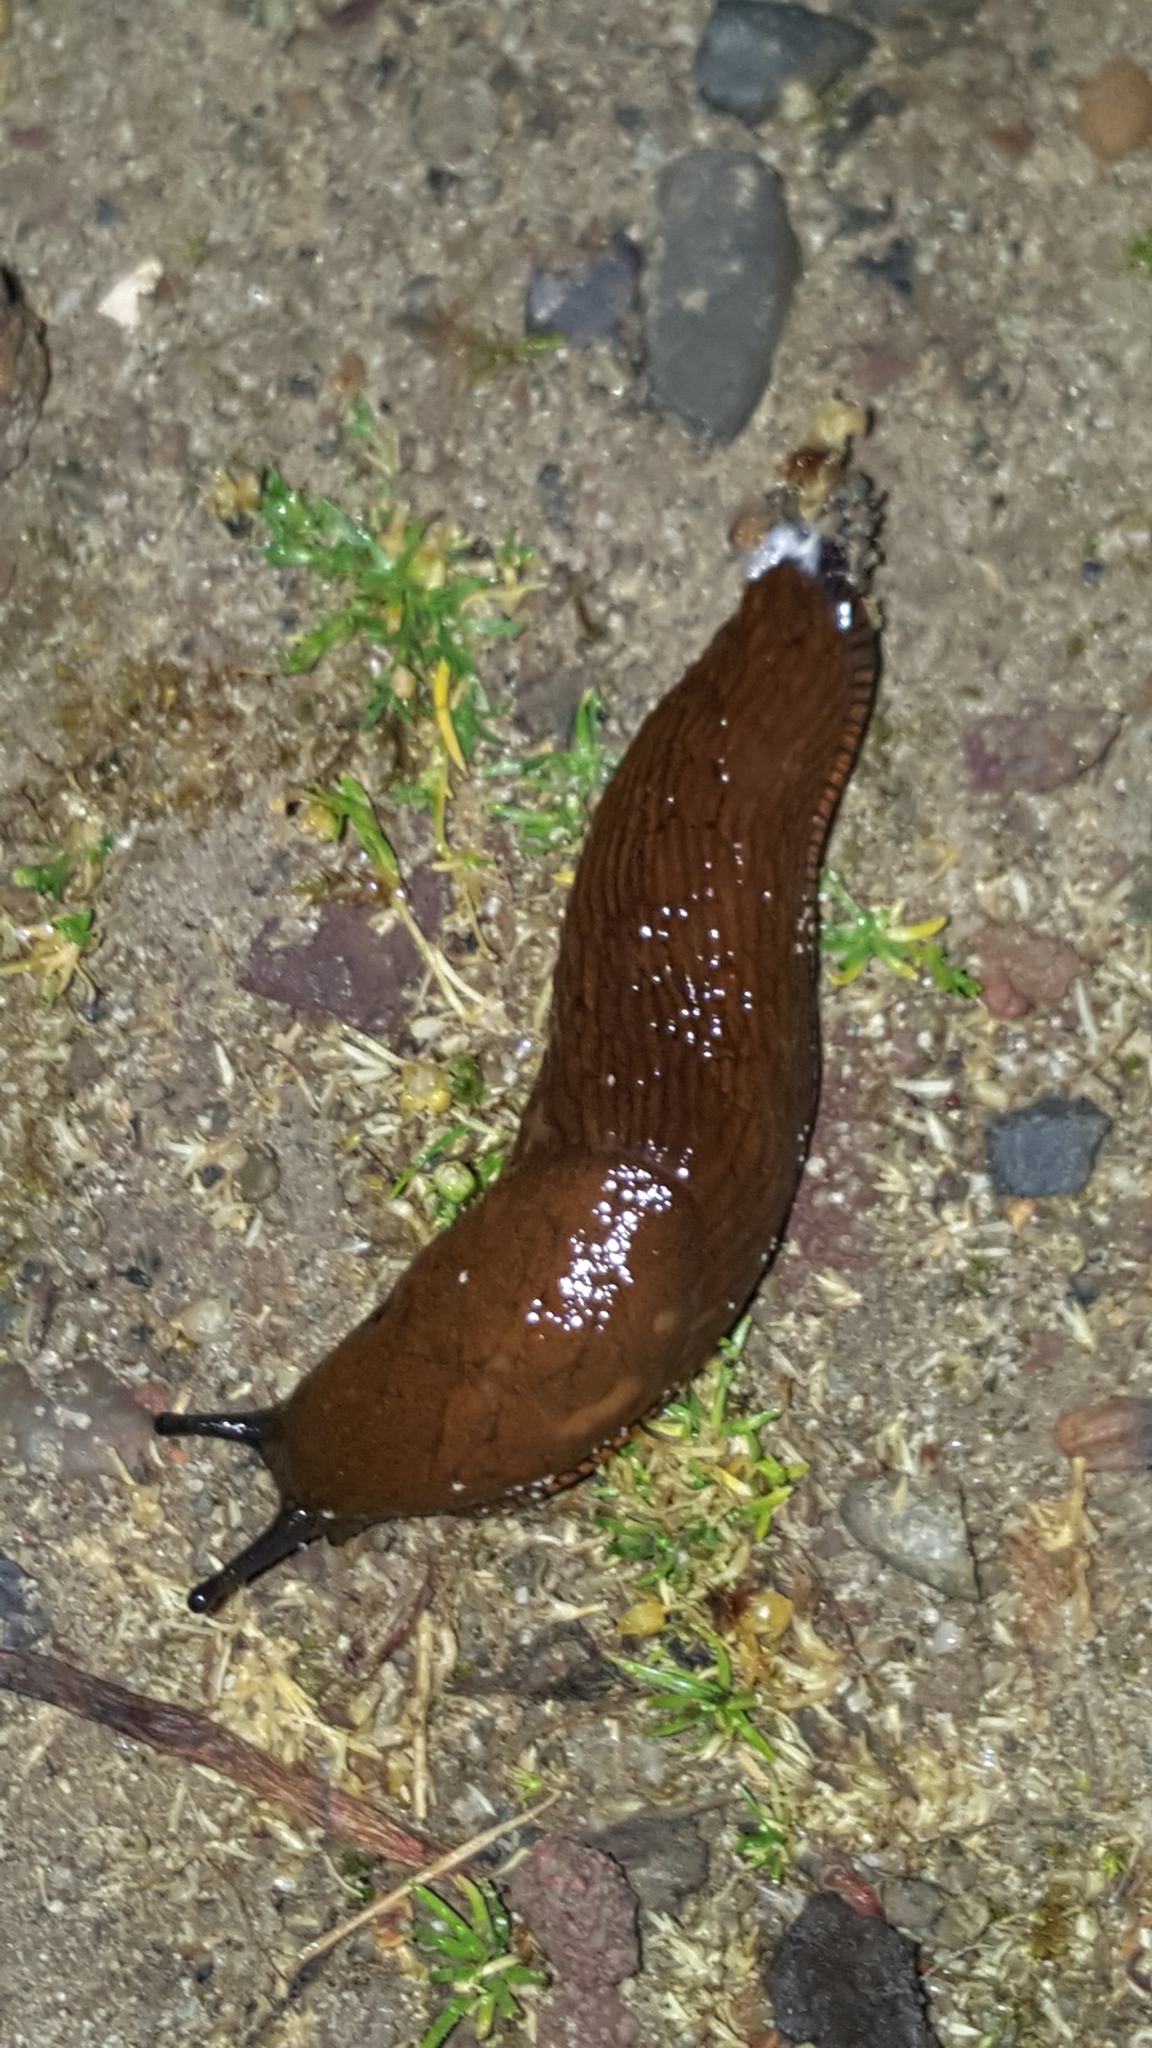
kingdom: Animalia
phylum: Mollusca
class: Gastropoda
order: Stylommatophora
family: Arionidae
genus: Arion
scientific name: Arion
